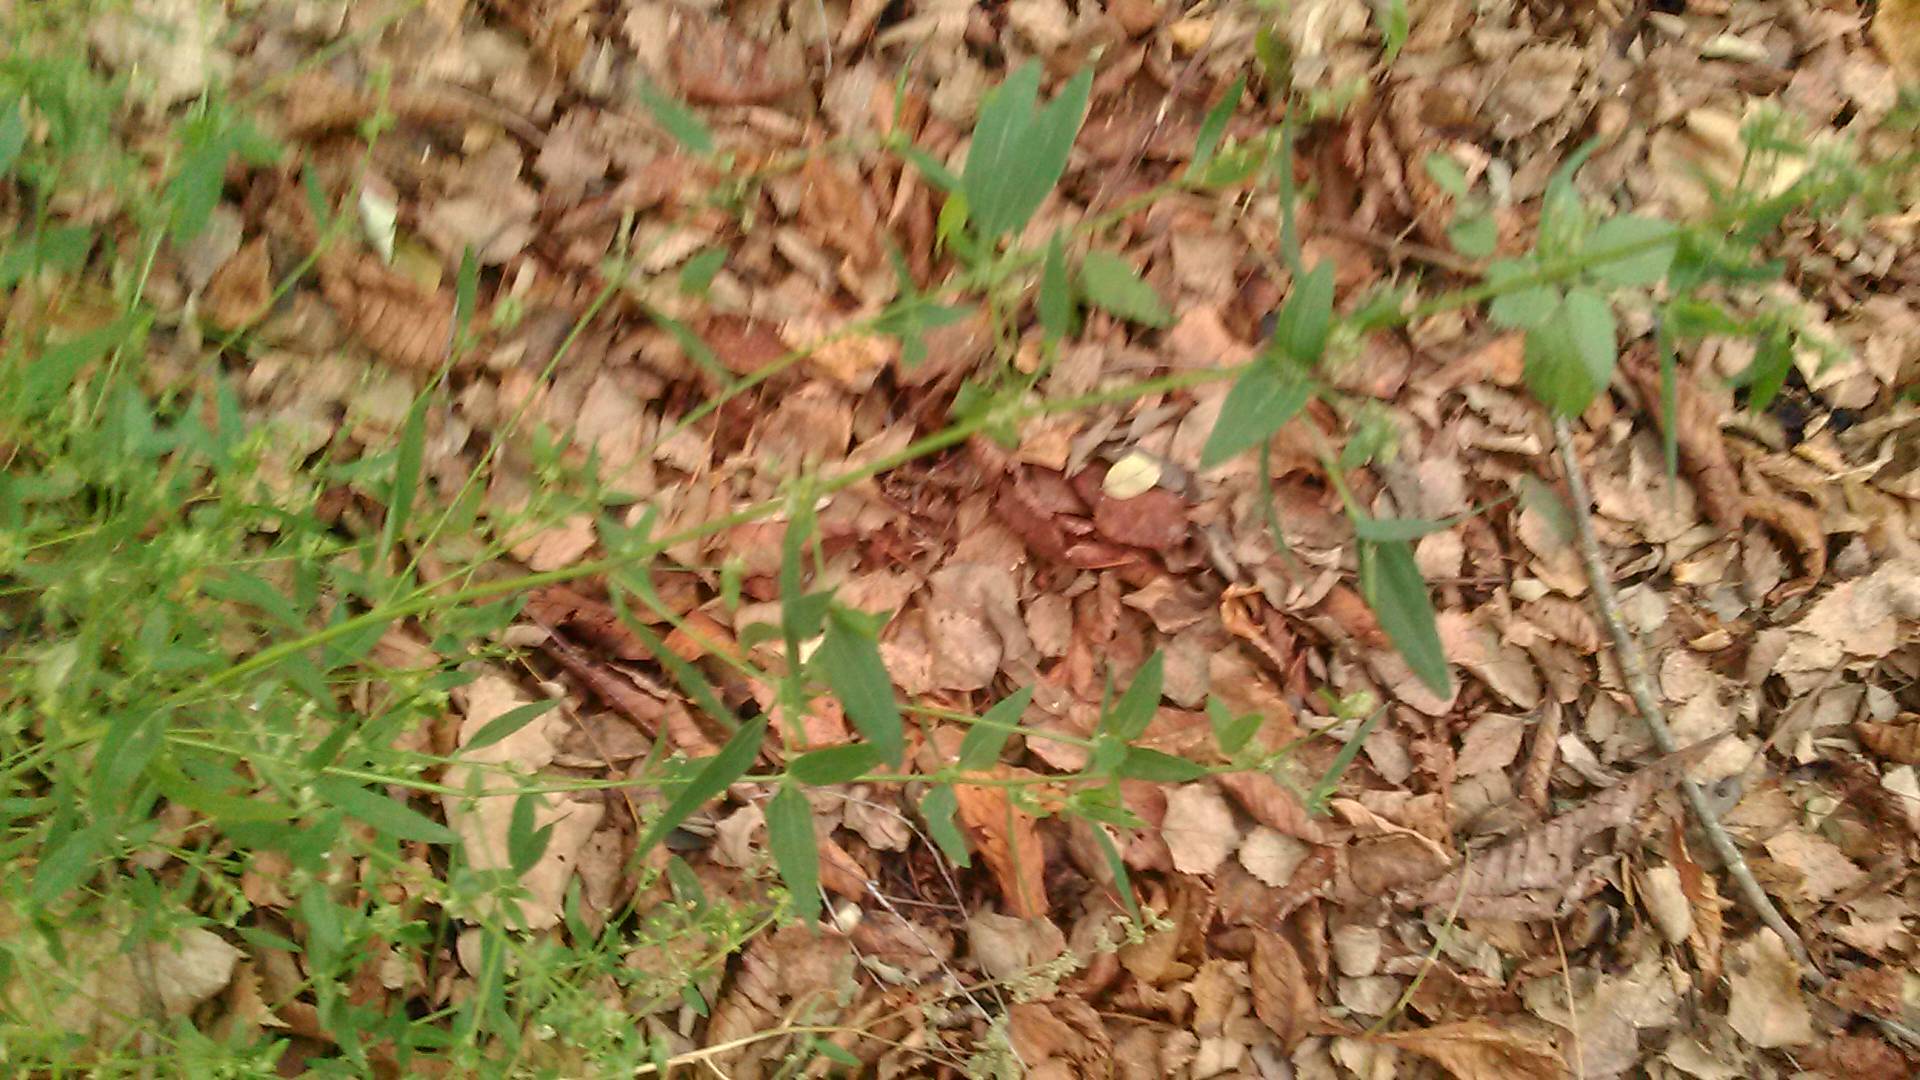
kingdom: Plantae
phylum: Tracheophyta
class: Magnoliopsida
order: Caryophyllales
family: Amaranthaceae
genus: Atriplex
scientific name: Atriplex patula
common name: Common orache
